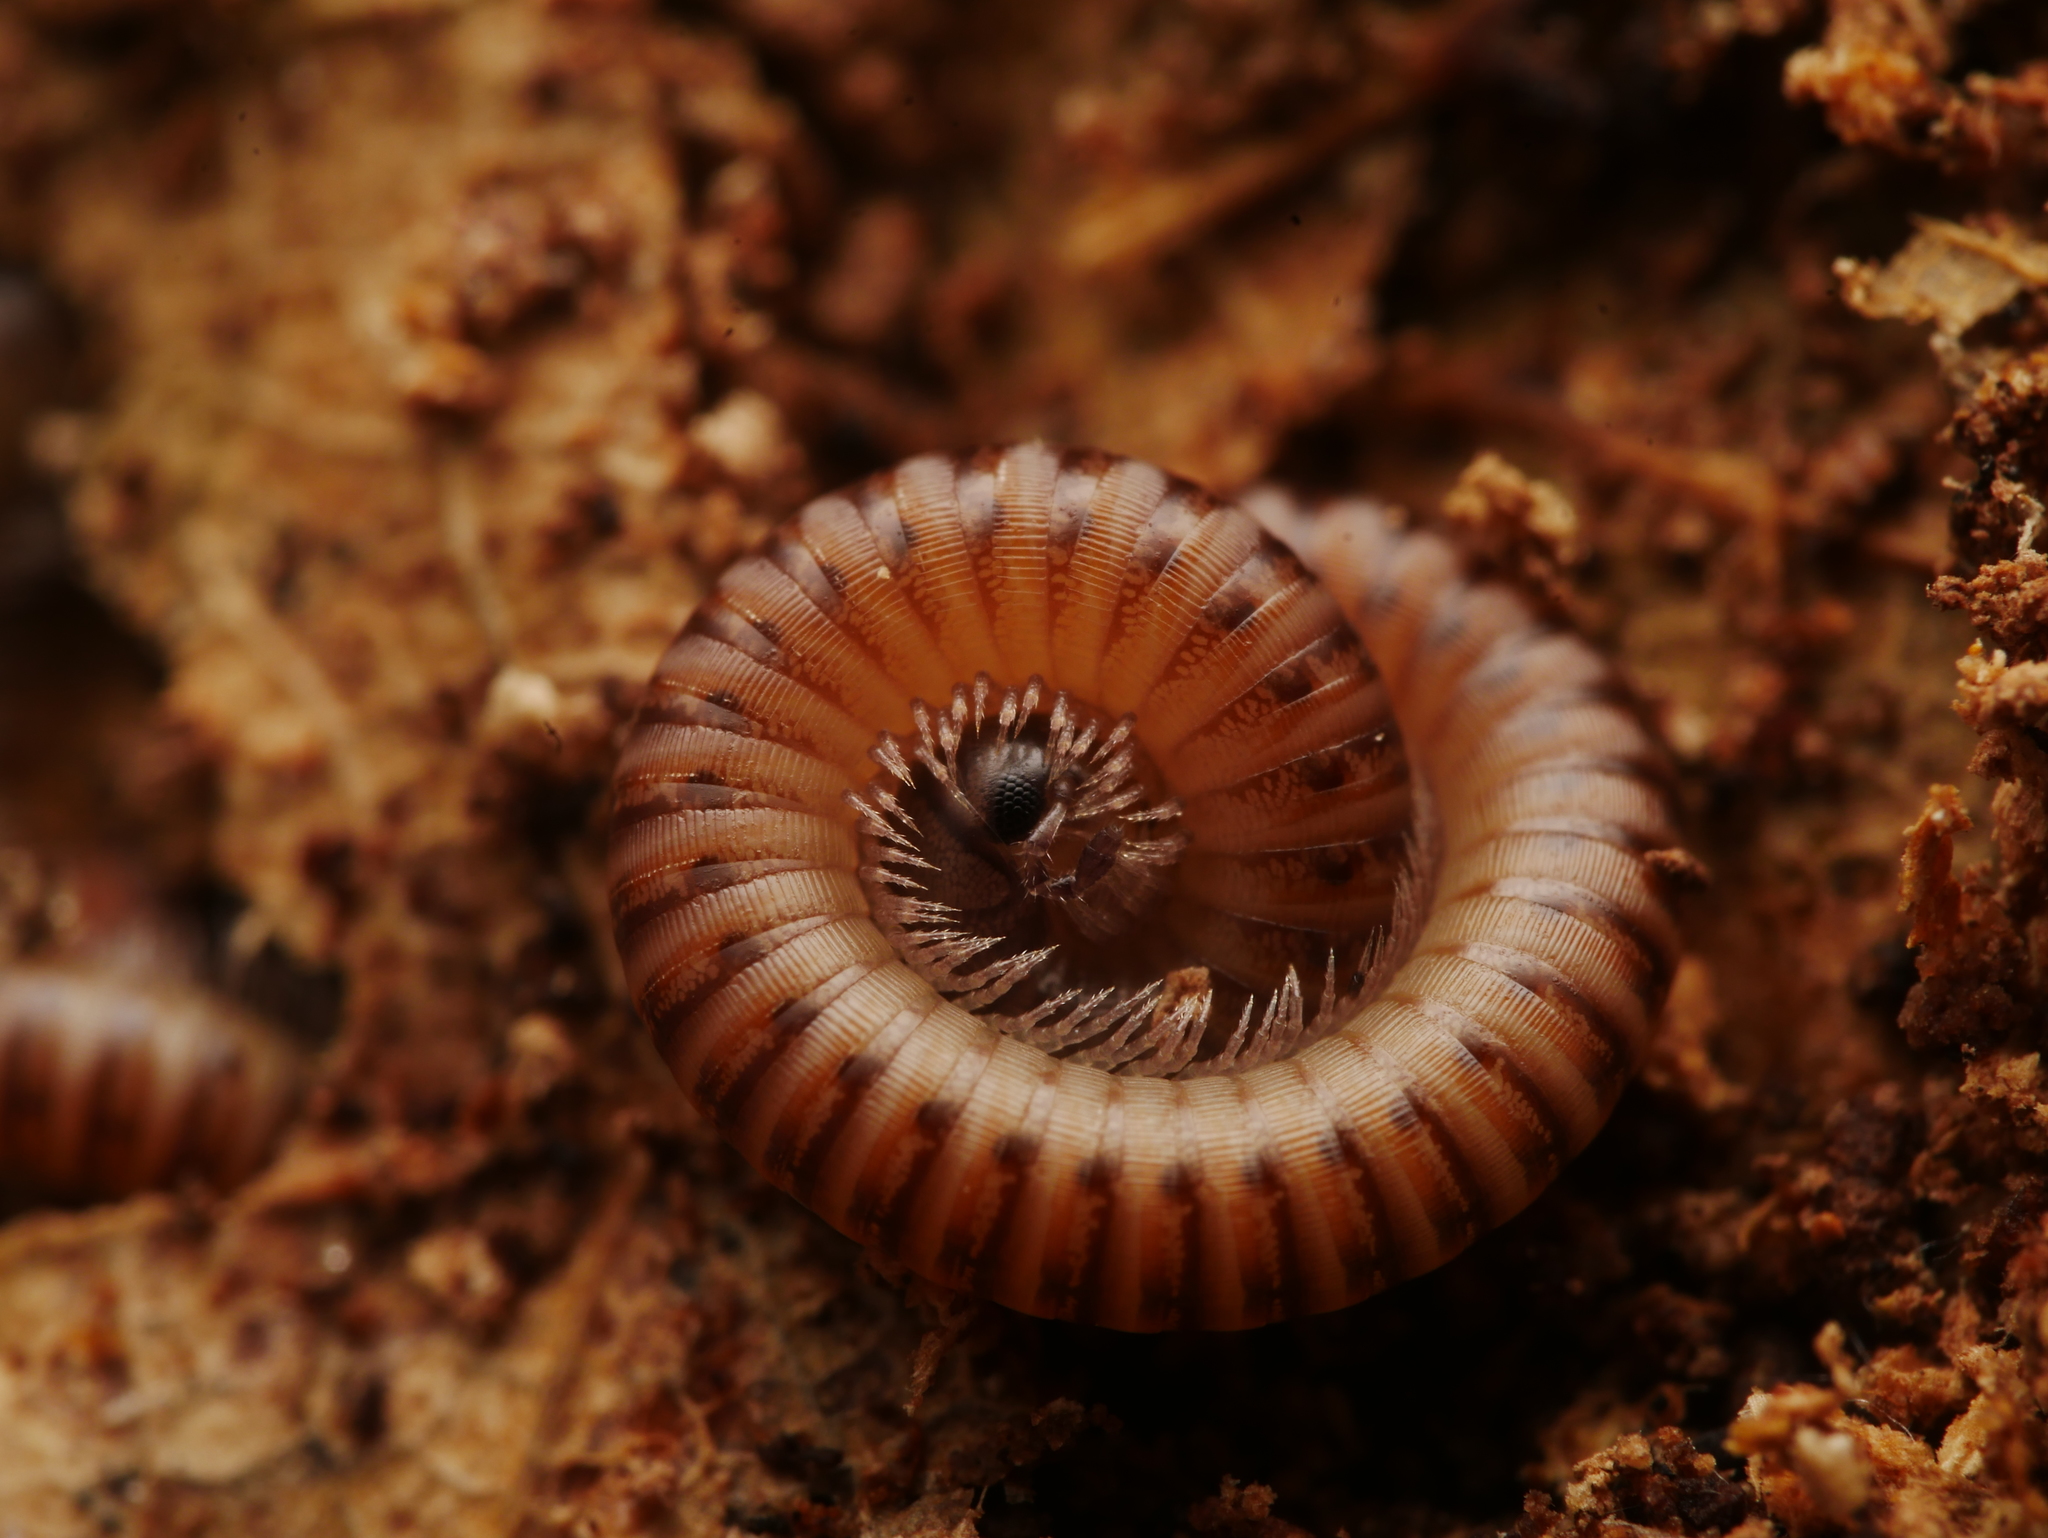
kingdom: Animalia
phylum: Arthropoda
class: Diplopoda
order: Julida
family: Julidae
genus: Cylindroiulus
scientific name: Cylindroiulus punctatus
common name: Blunt-tailed millipede
